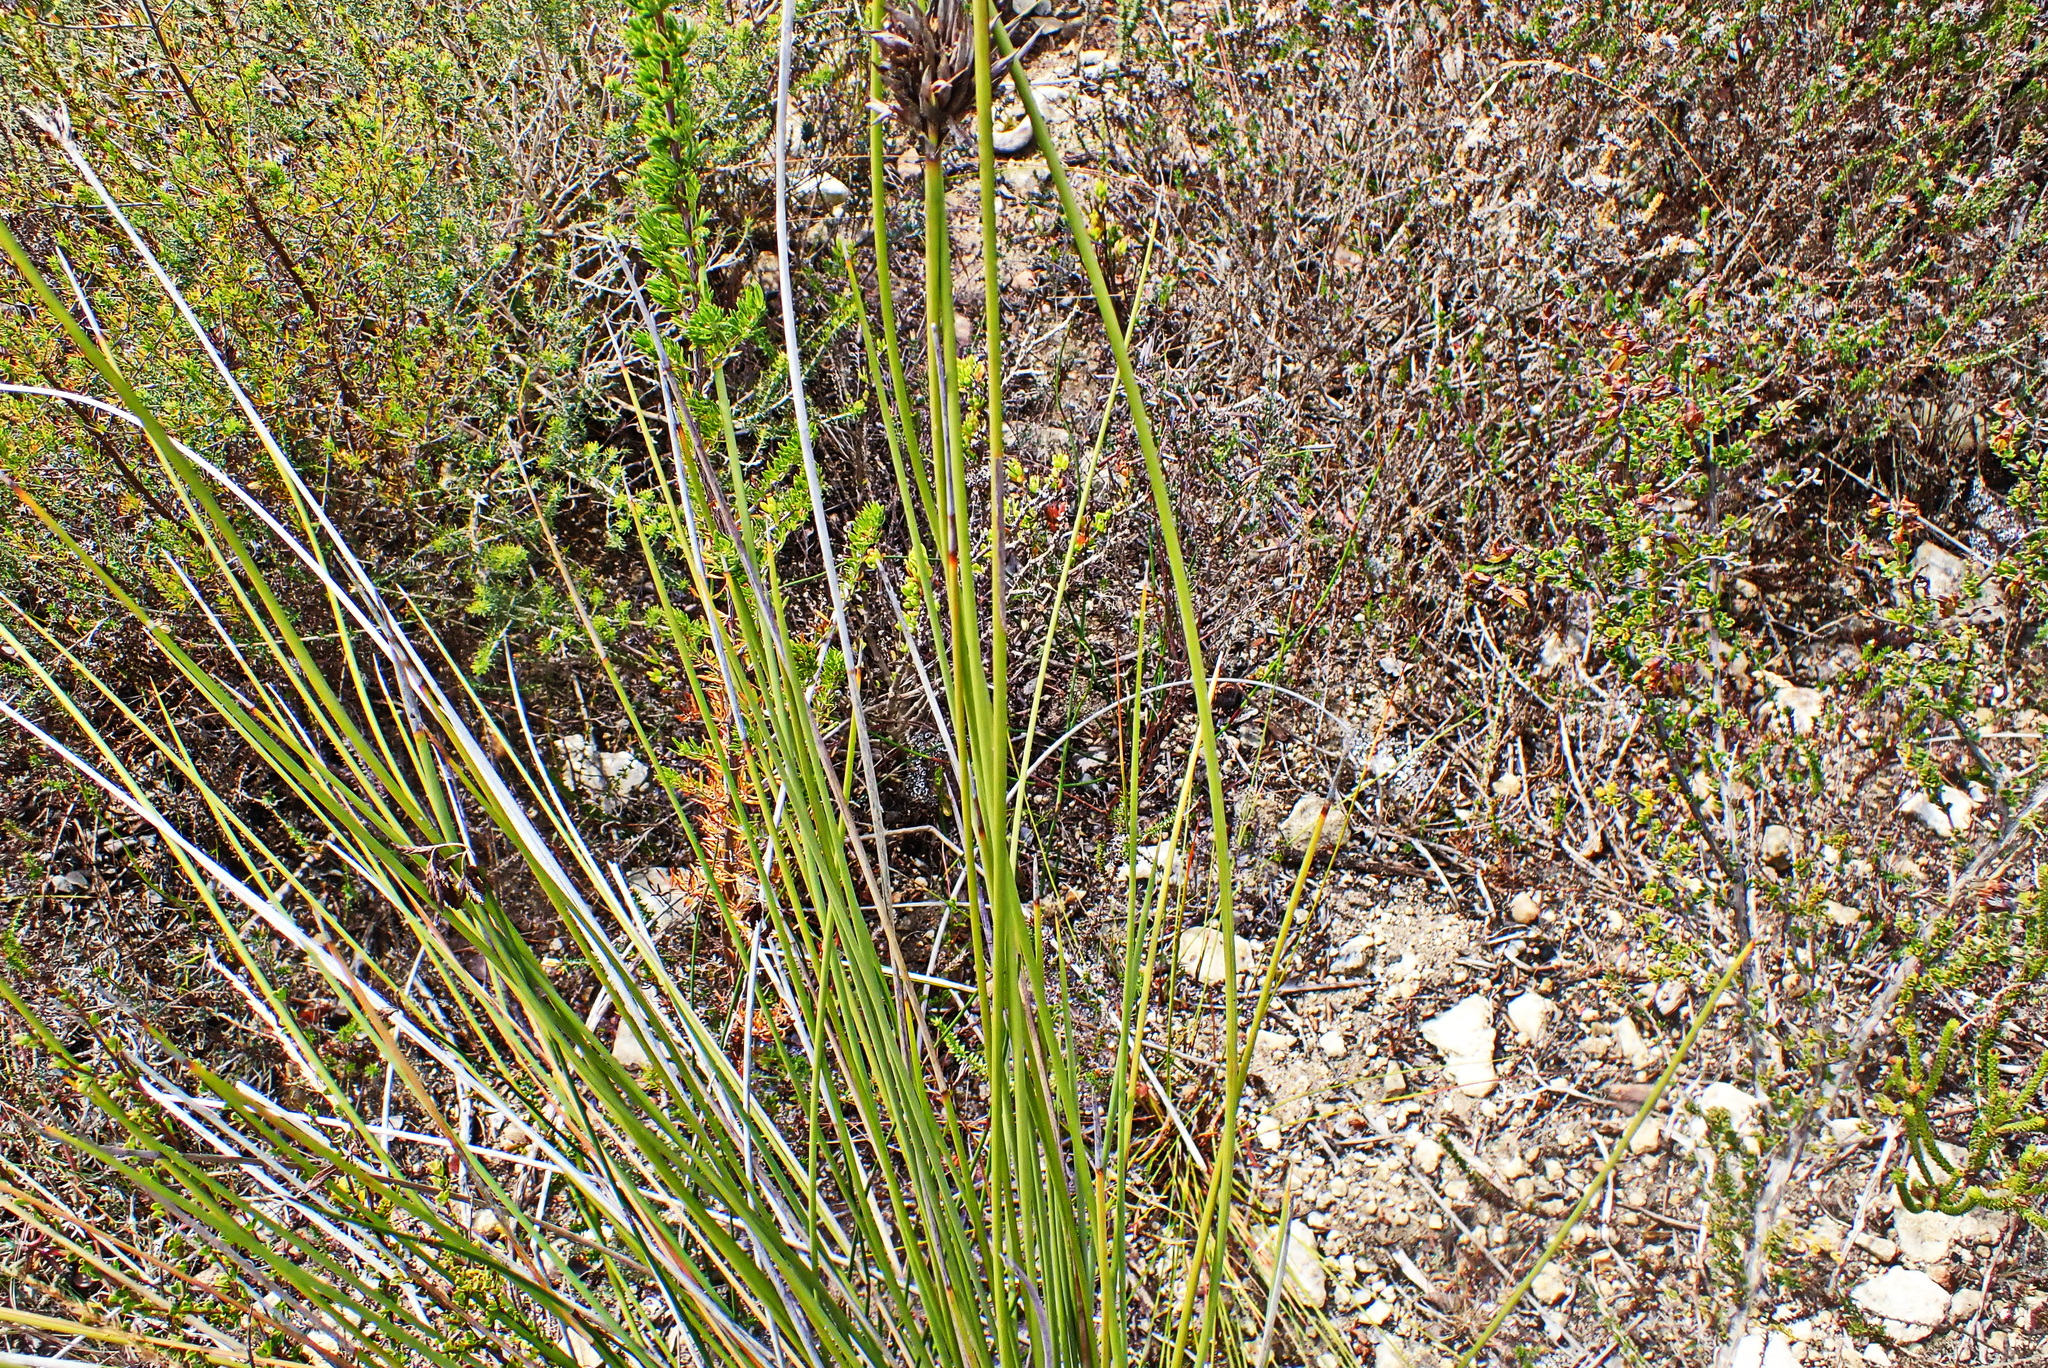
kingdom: Plantae
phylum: Tracheophyta
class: Liliopsida
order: Asparagales
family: Iridaceae
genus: Bobartia
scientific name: Bobartia robusta
